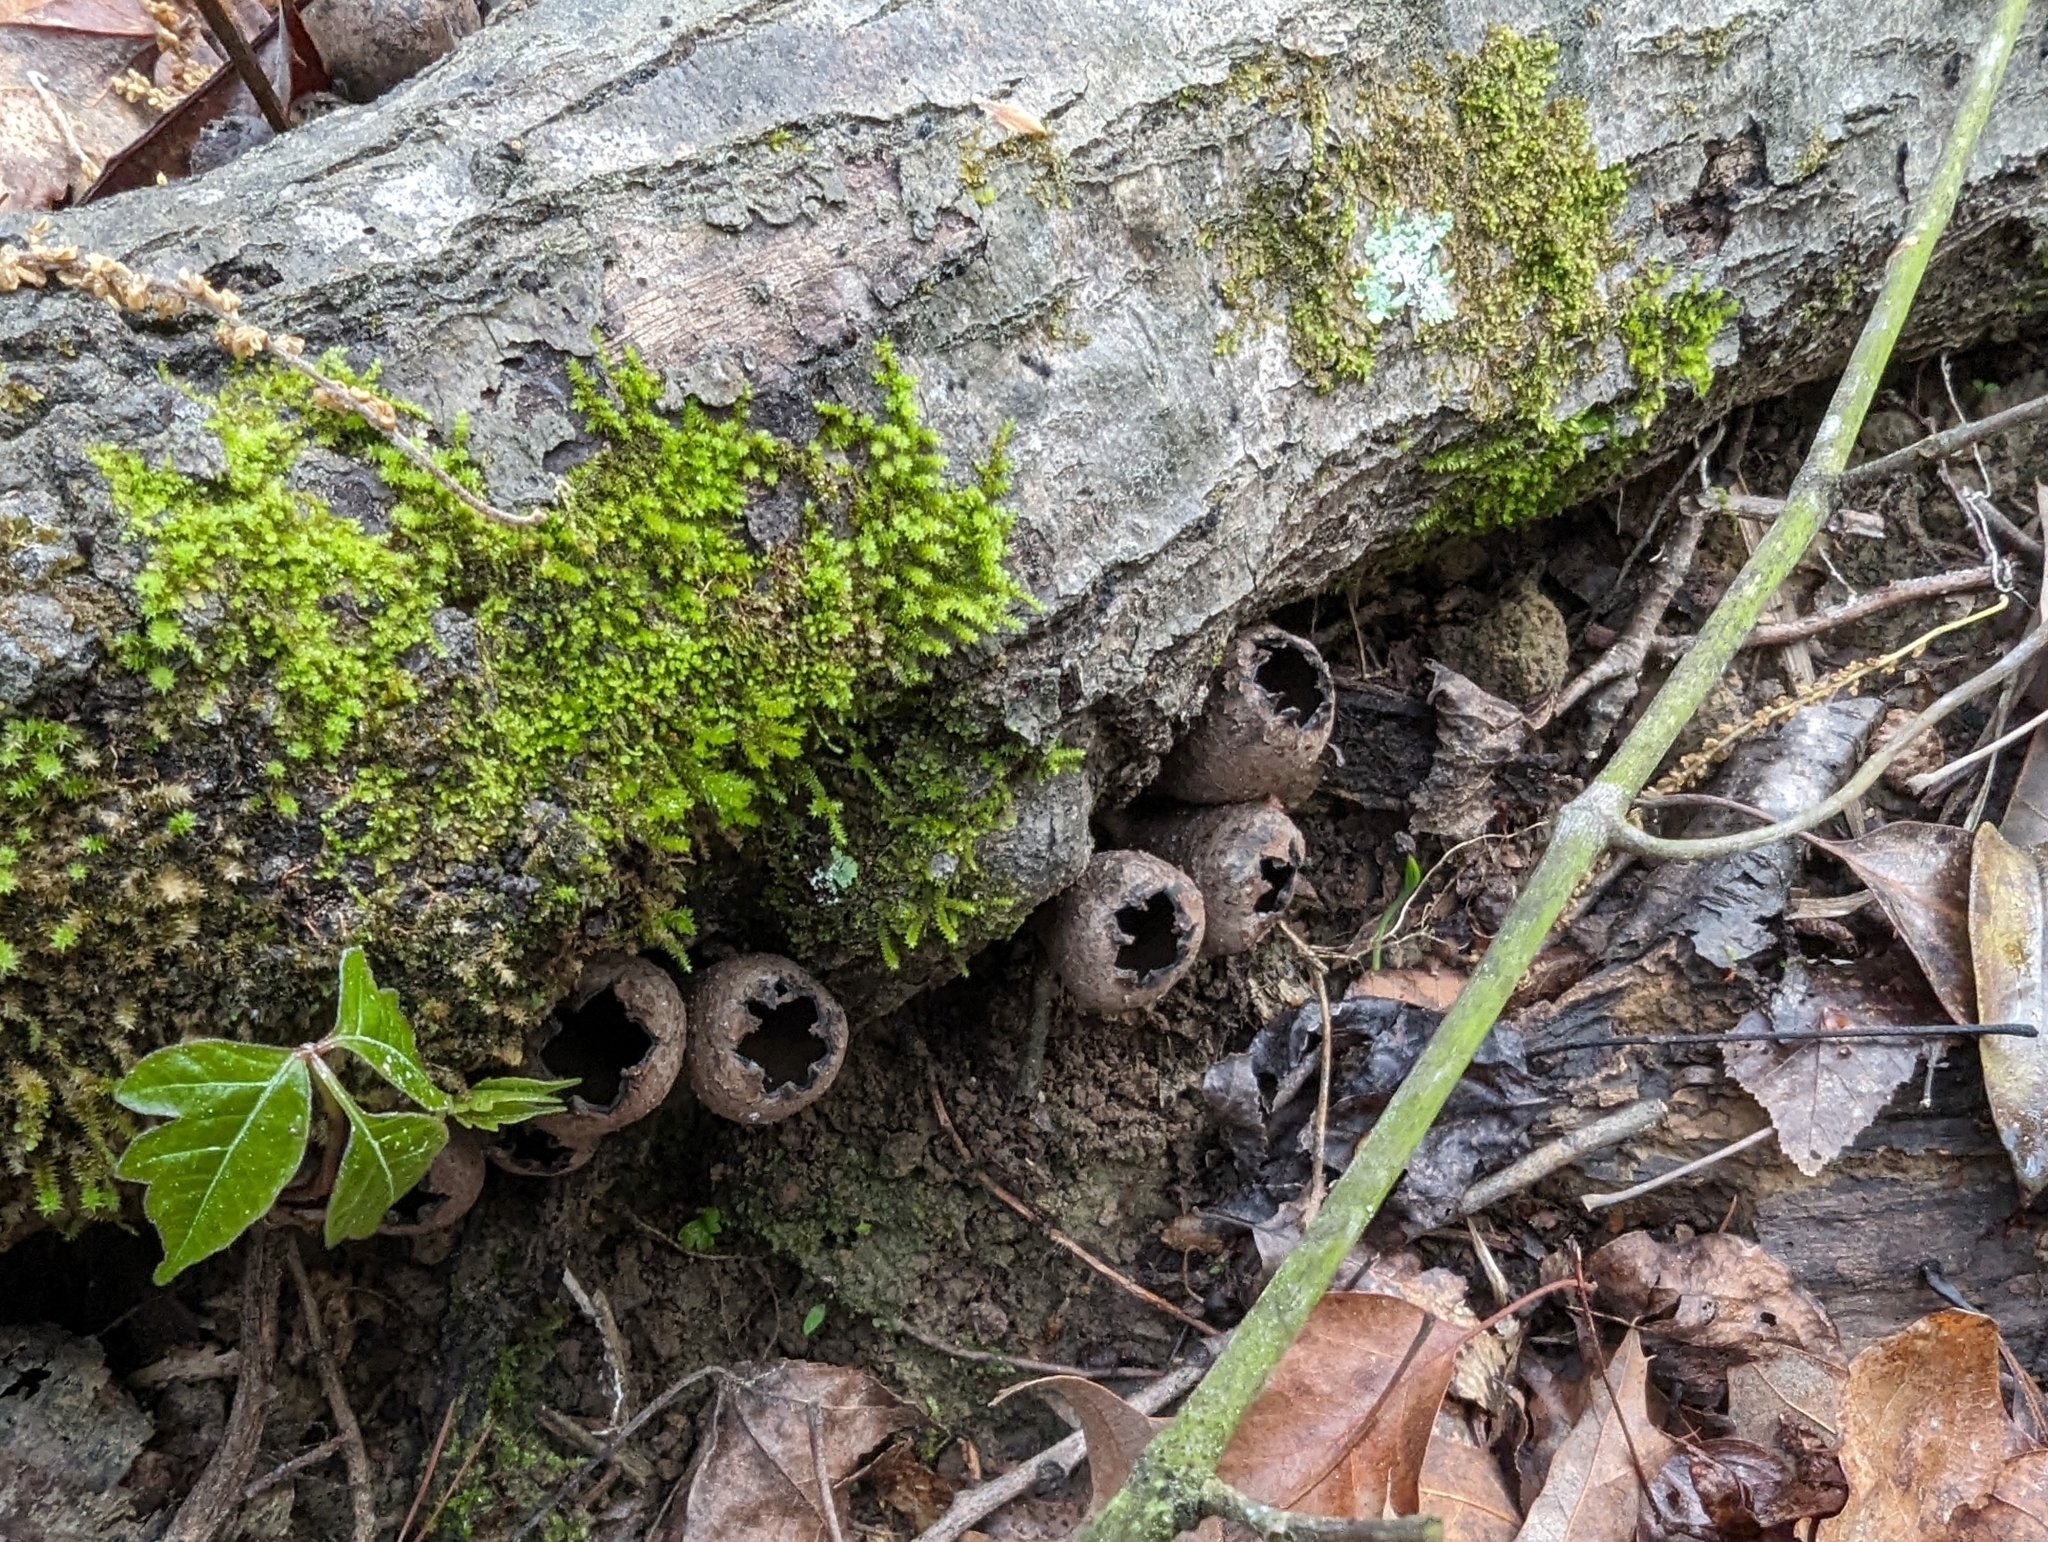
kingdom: Fungi
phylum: Ascomycota
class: Pezizomycetes
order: Pezizales
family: Sarcosomataceae
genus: Urnula
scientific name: Urnula craterium
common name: Devil's urn
